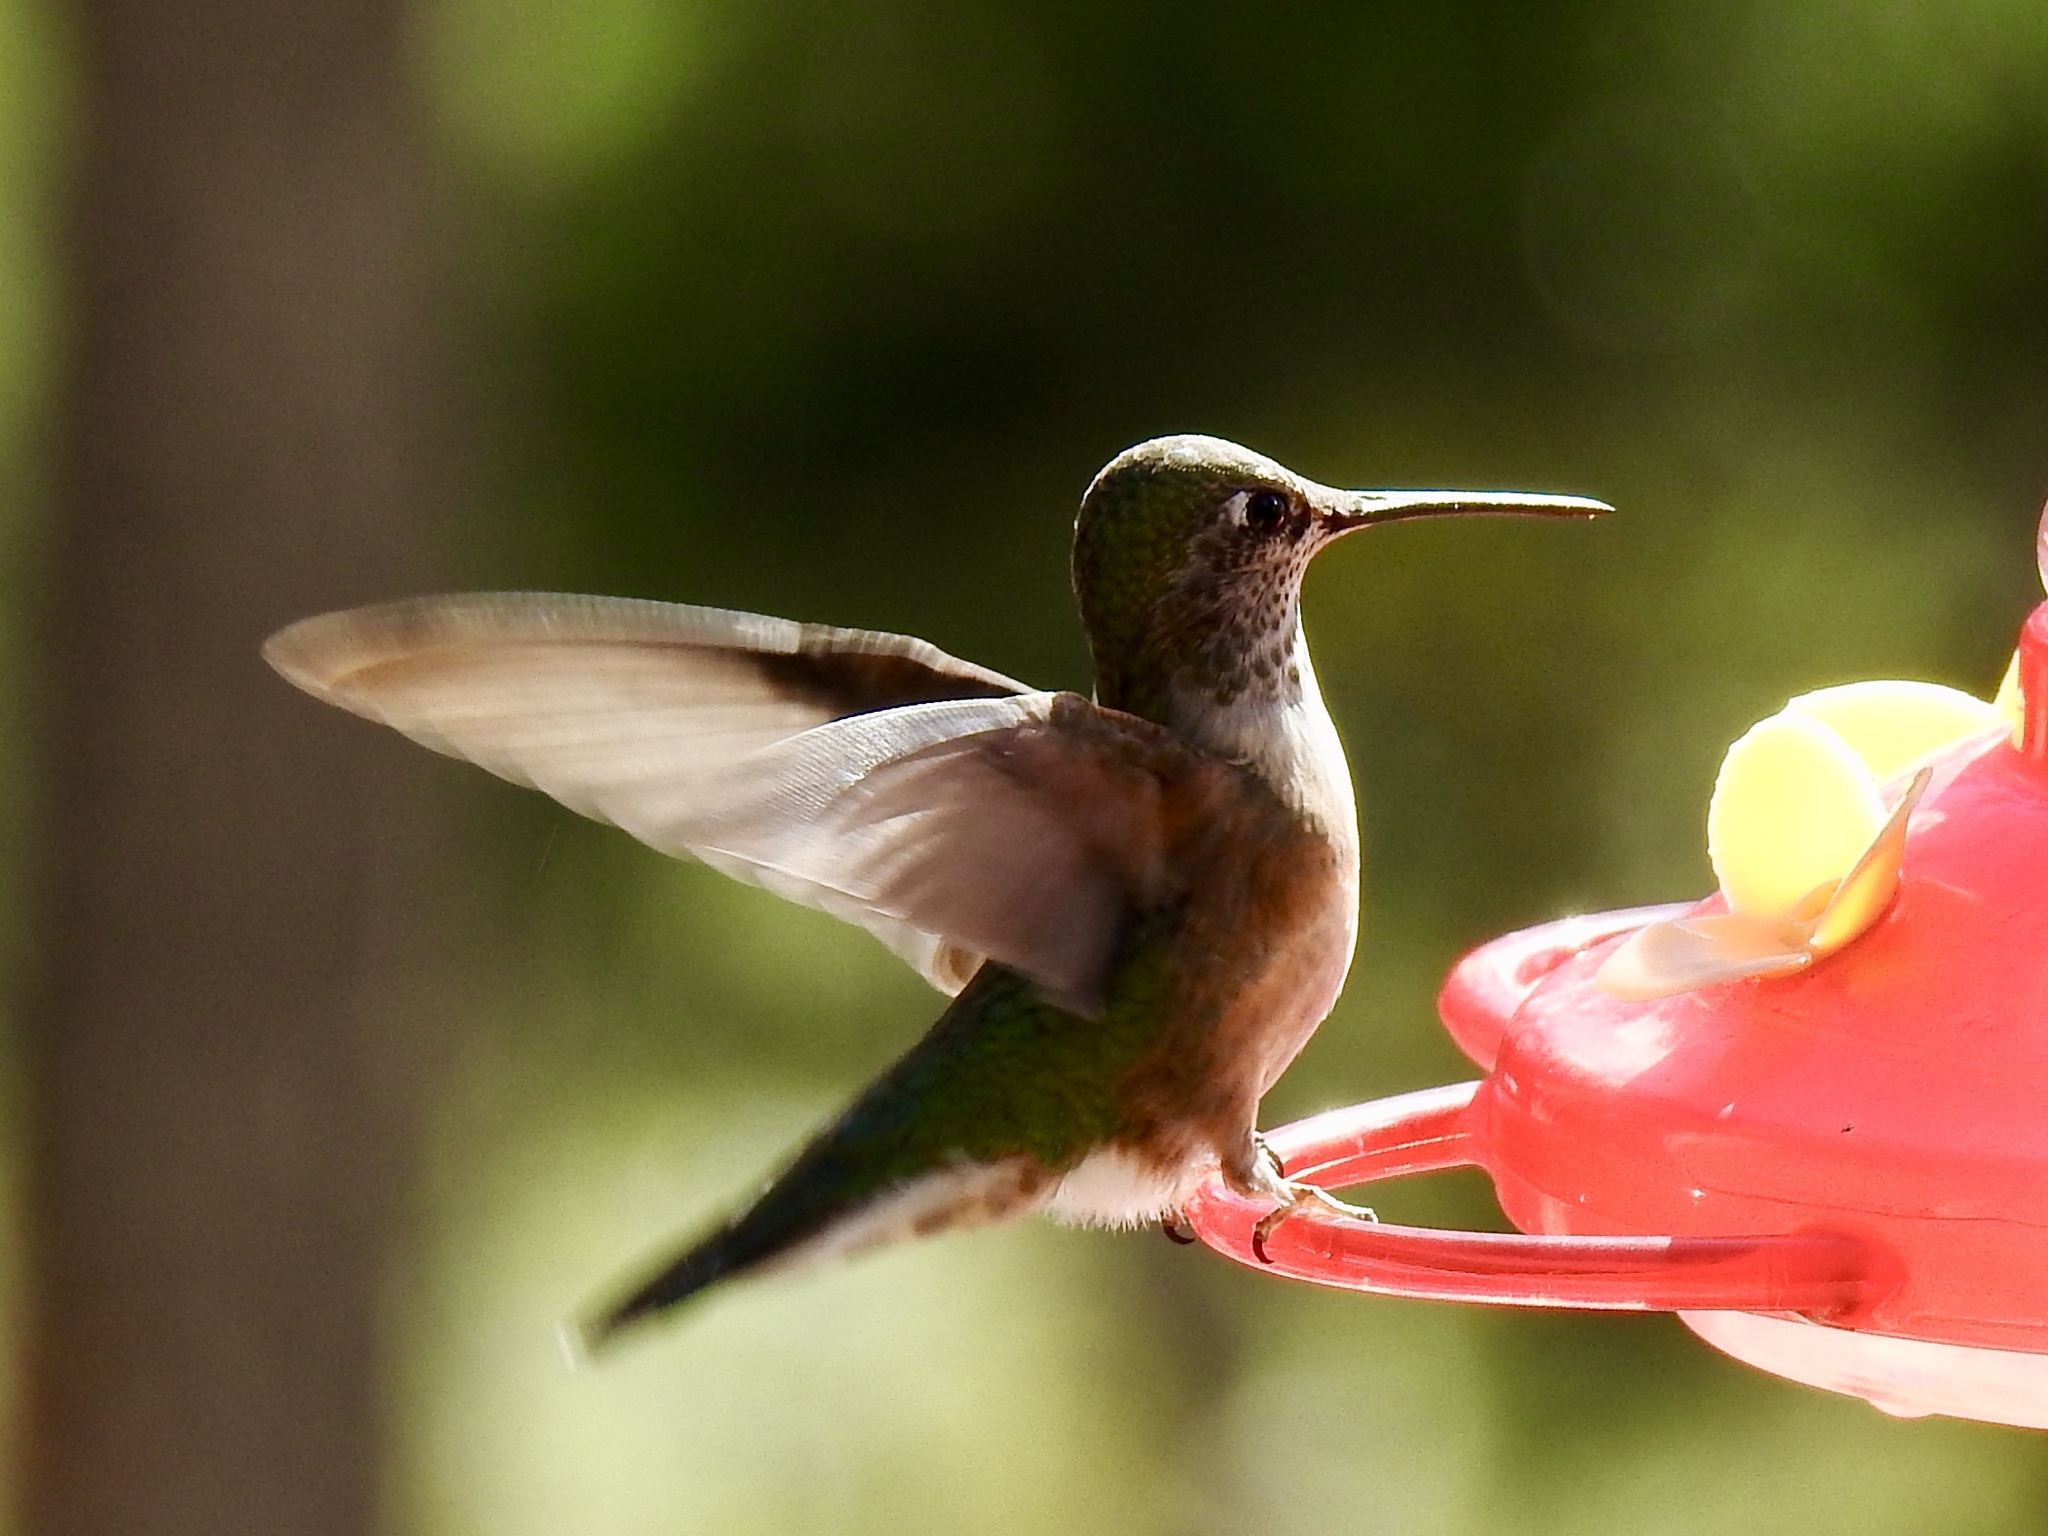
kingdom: Animalia
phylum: Chordata
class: Aves
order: Apodiformes
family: Trochilidae
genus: Selasphorus
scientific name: Selasphorus platycercus
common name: Broad-tailed hummingbird
